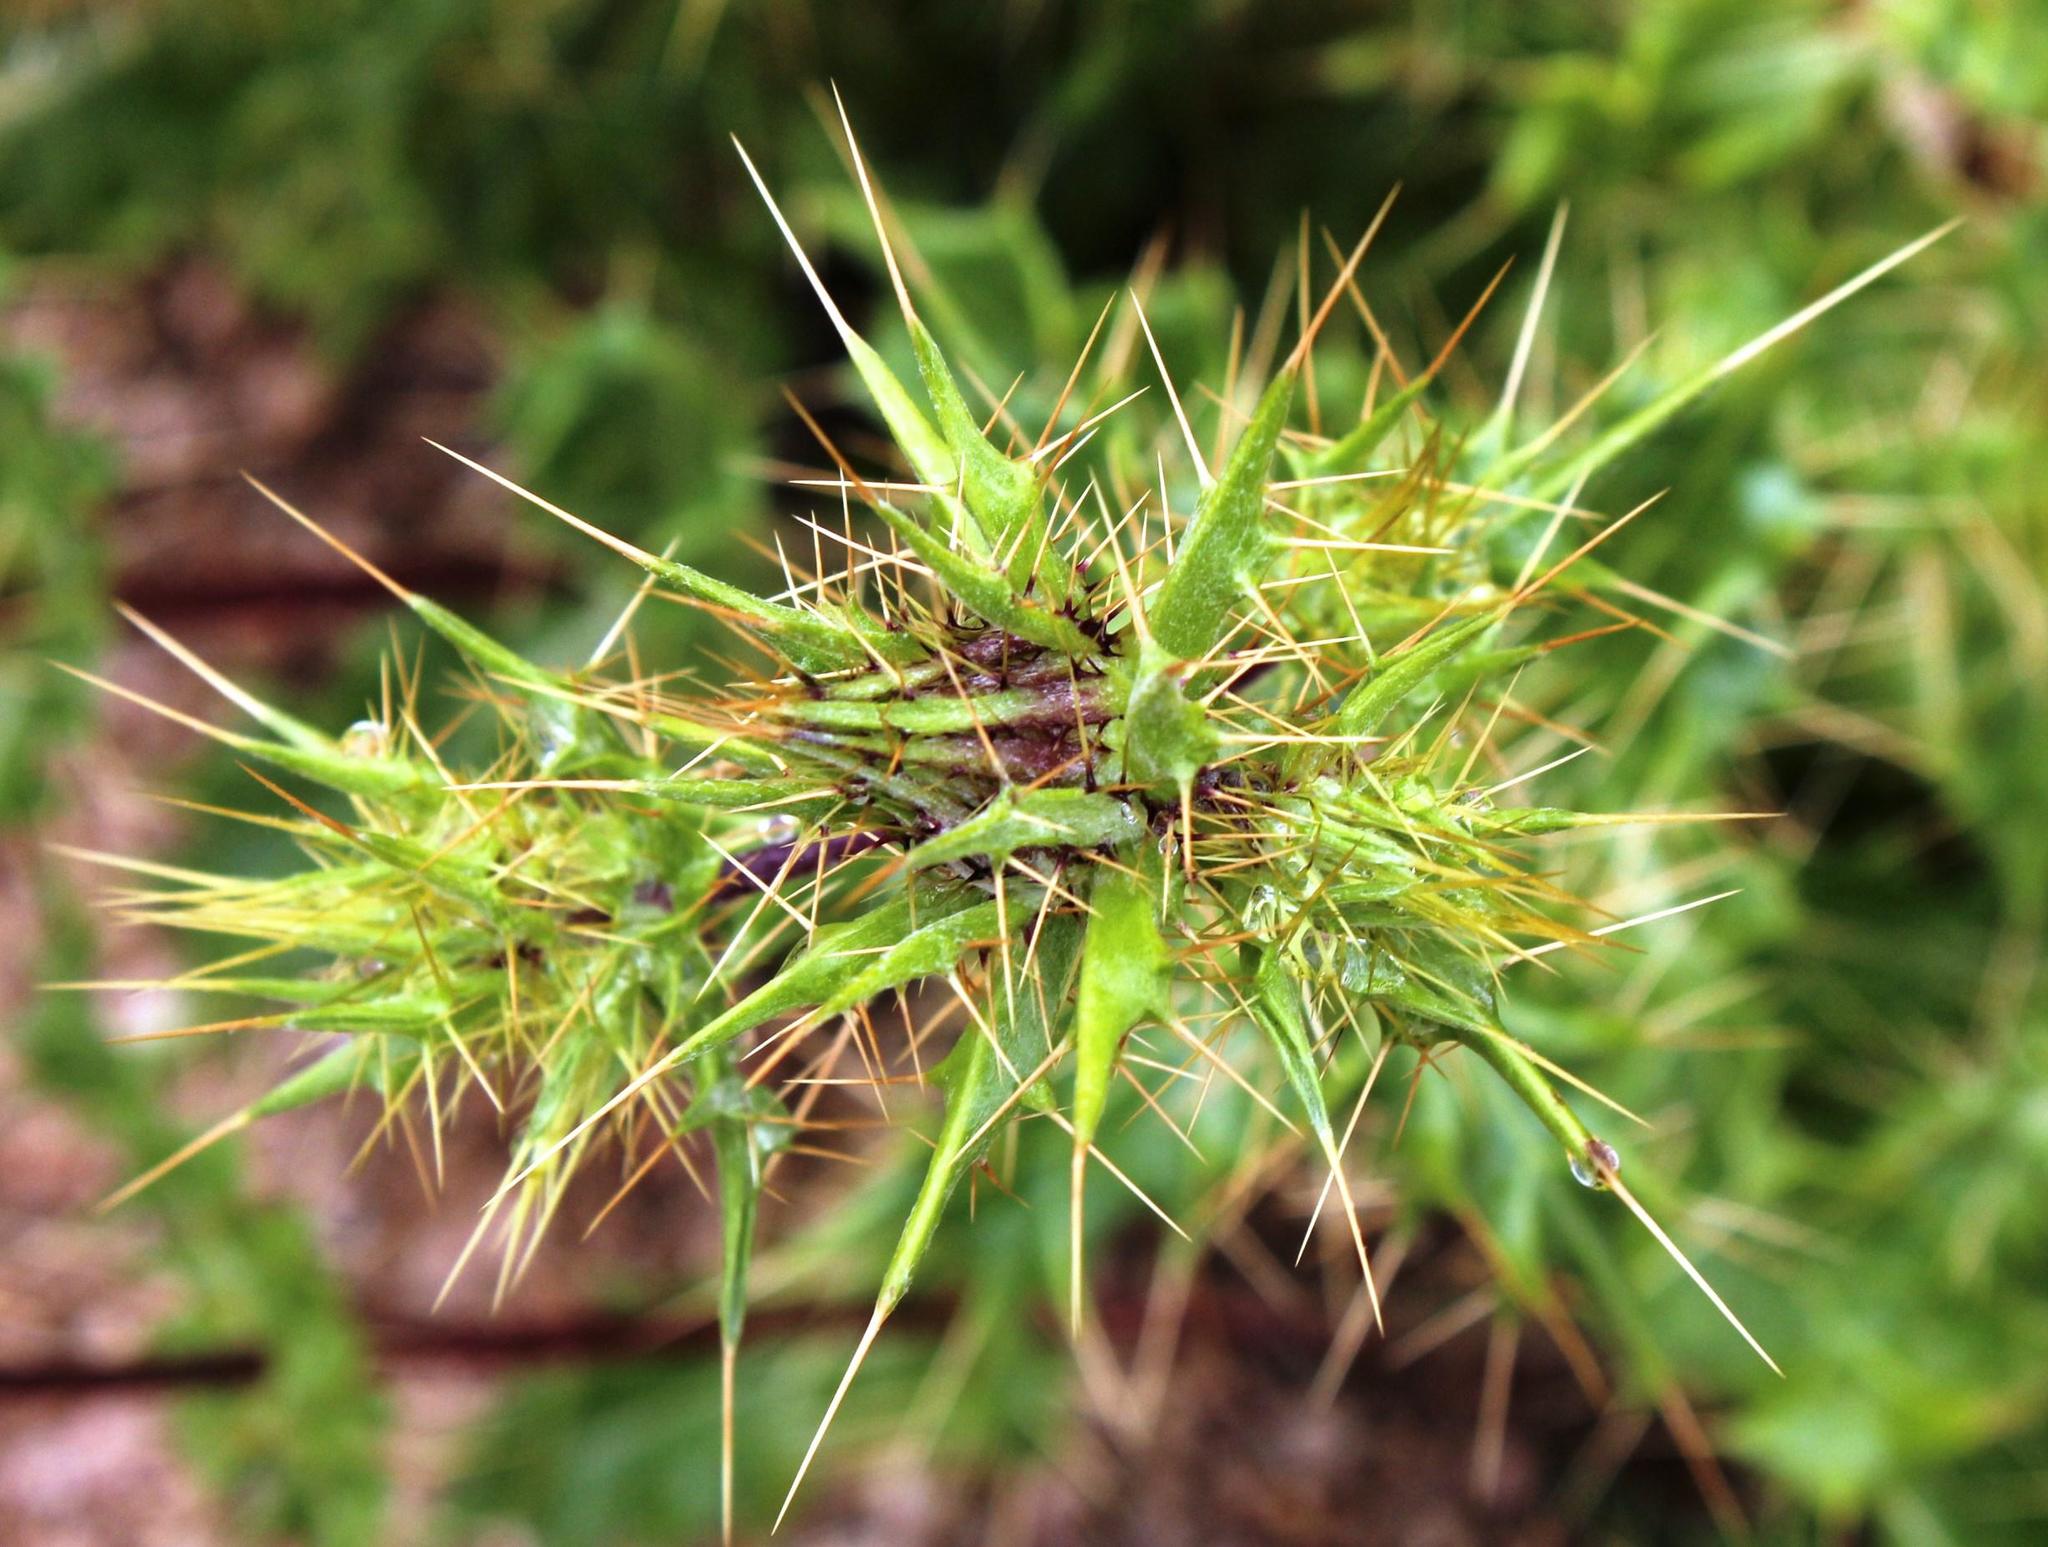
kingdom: Plantae
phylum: Tracheophyta
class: Magnoliopsida
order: Asterales
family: Asteraceae
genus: Berkheya
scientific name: Berkheya spinosissima
